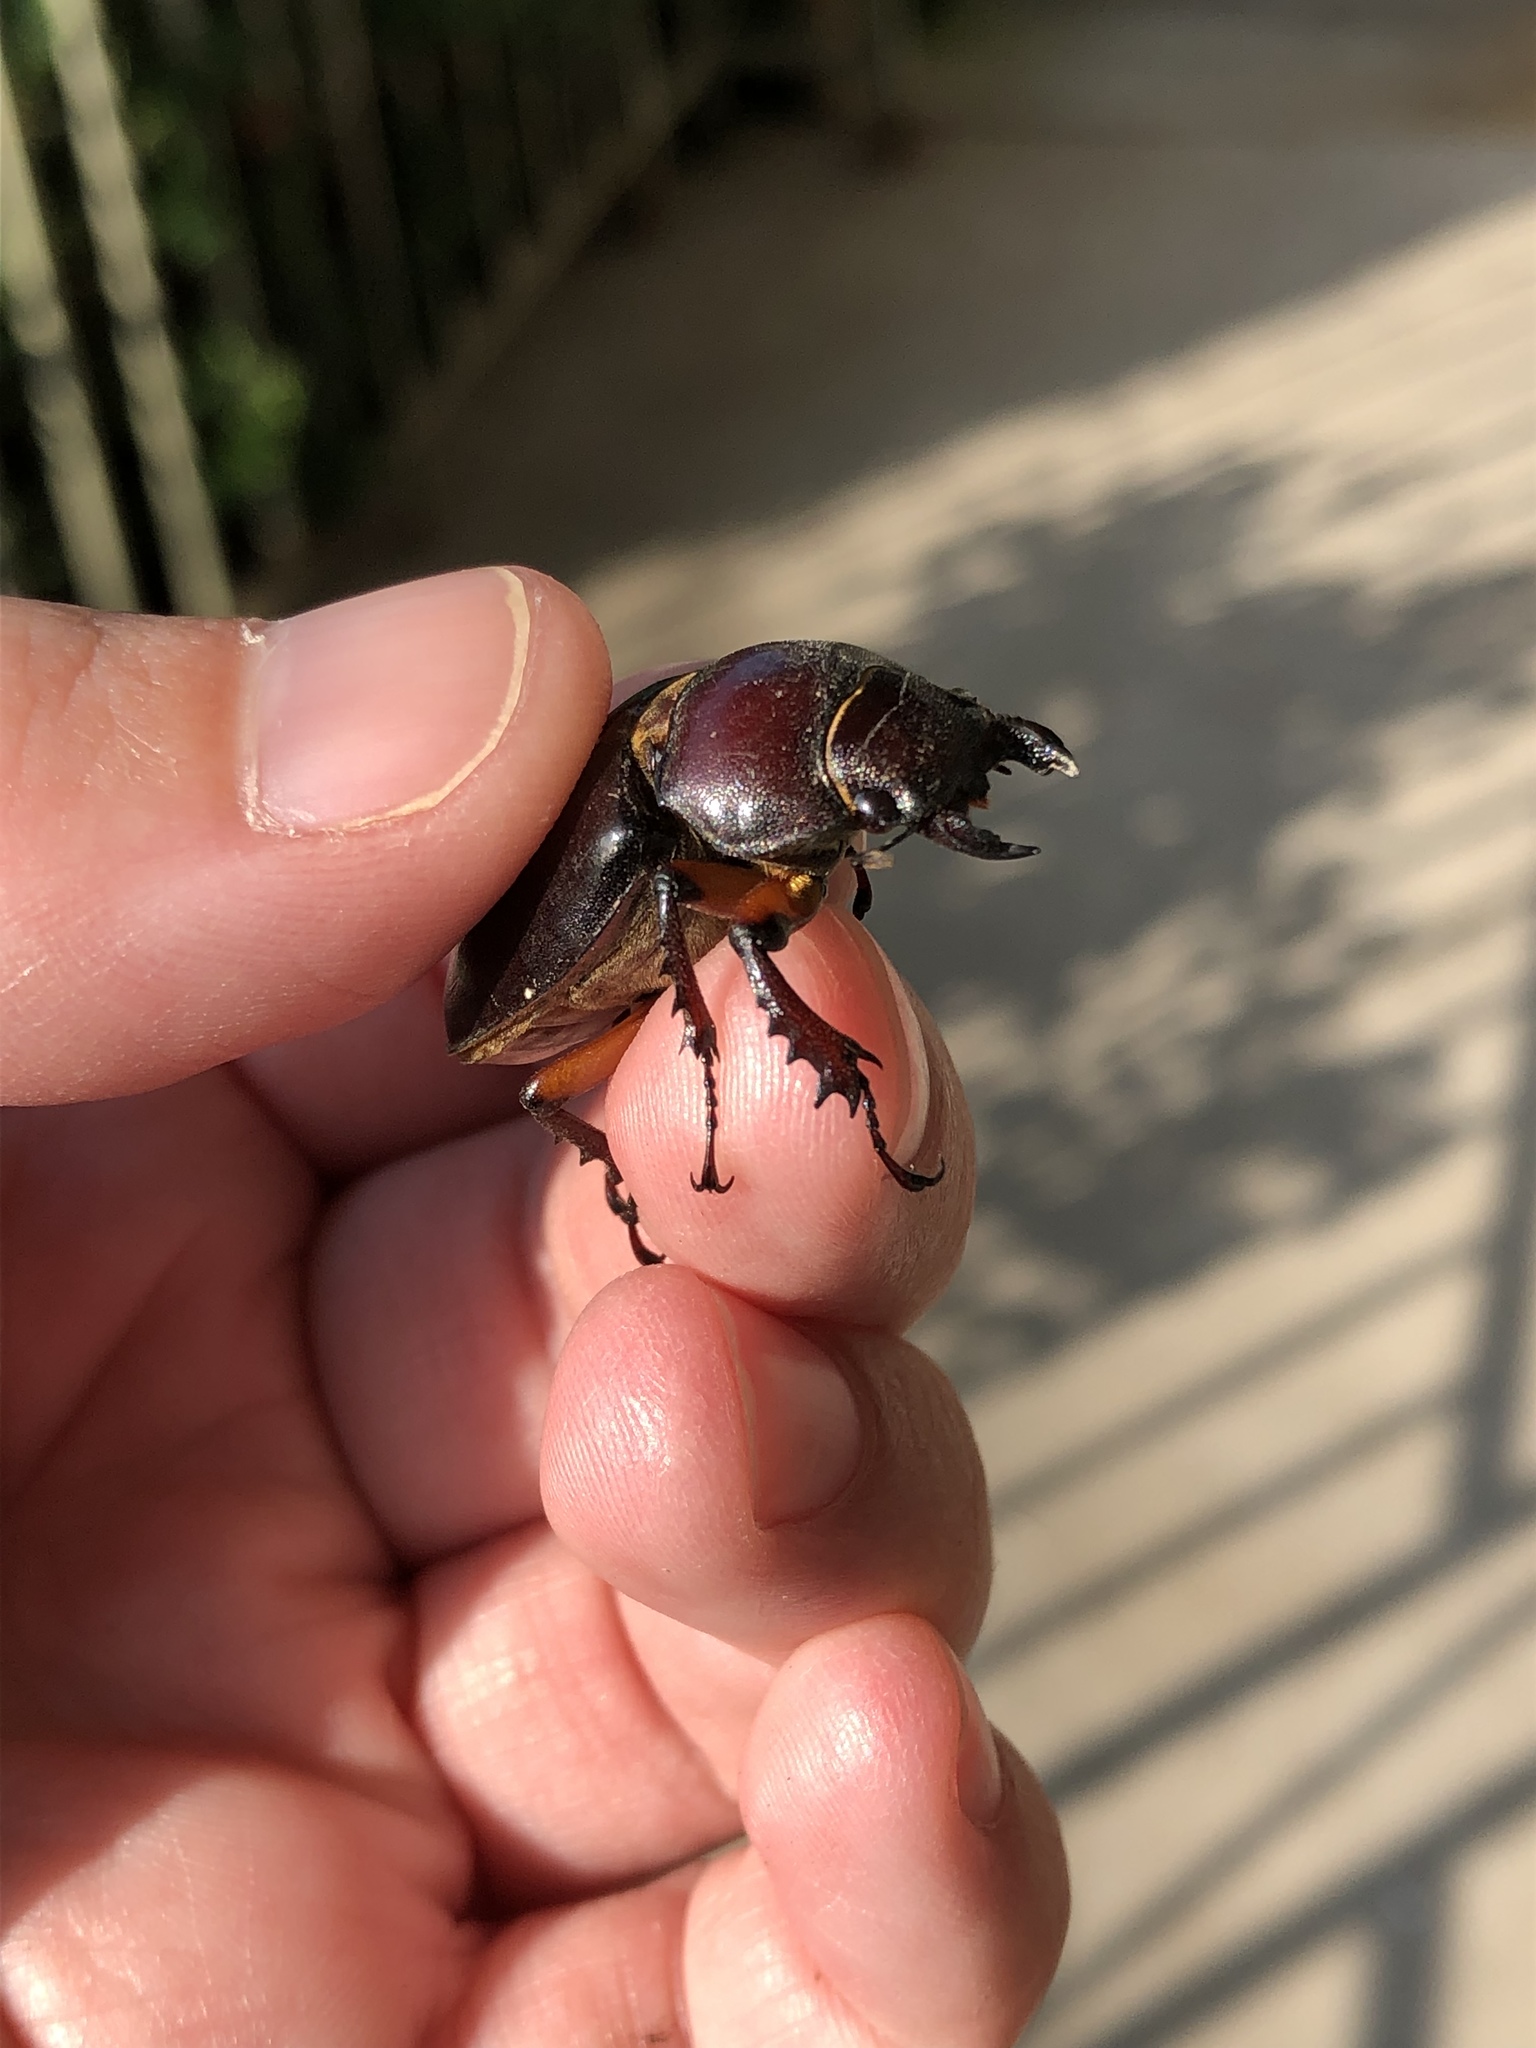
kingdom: Animalia
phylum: Arthropoda
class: Insecta
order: Coleoptera
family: Lucanidae
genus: Lucanus
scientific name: Lucanus capreolus
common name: Stag beetle
